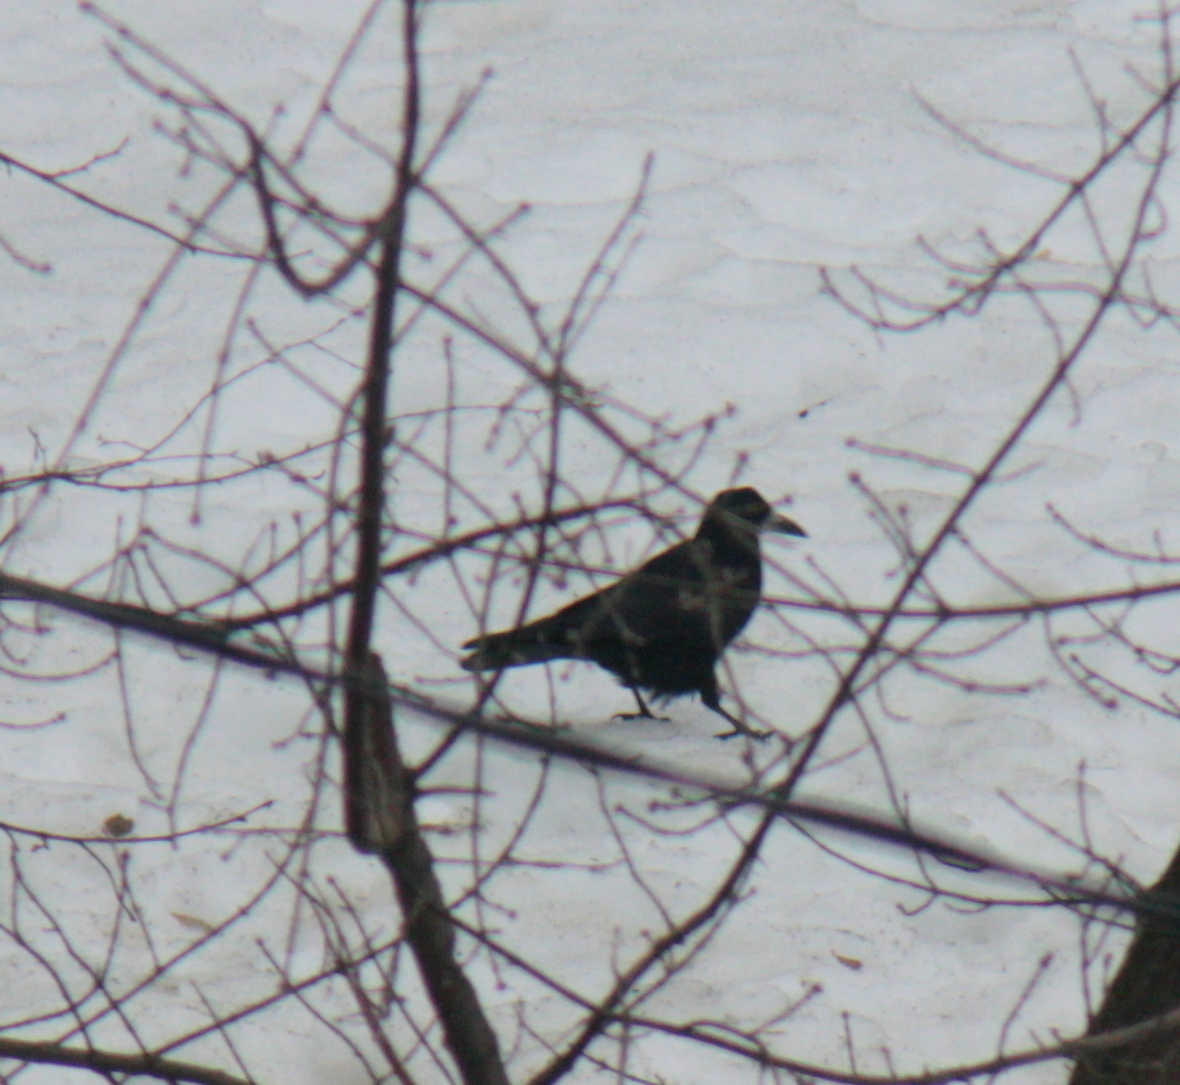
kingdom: Animalia
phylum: Chordata
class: Aves
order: Passeriformes
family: Corvidae
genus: Corvus
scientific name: Corvus frugilegus
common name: Rook
